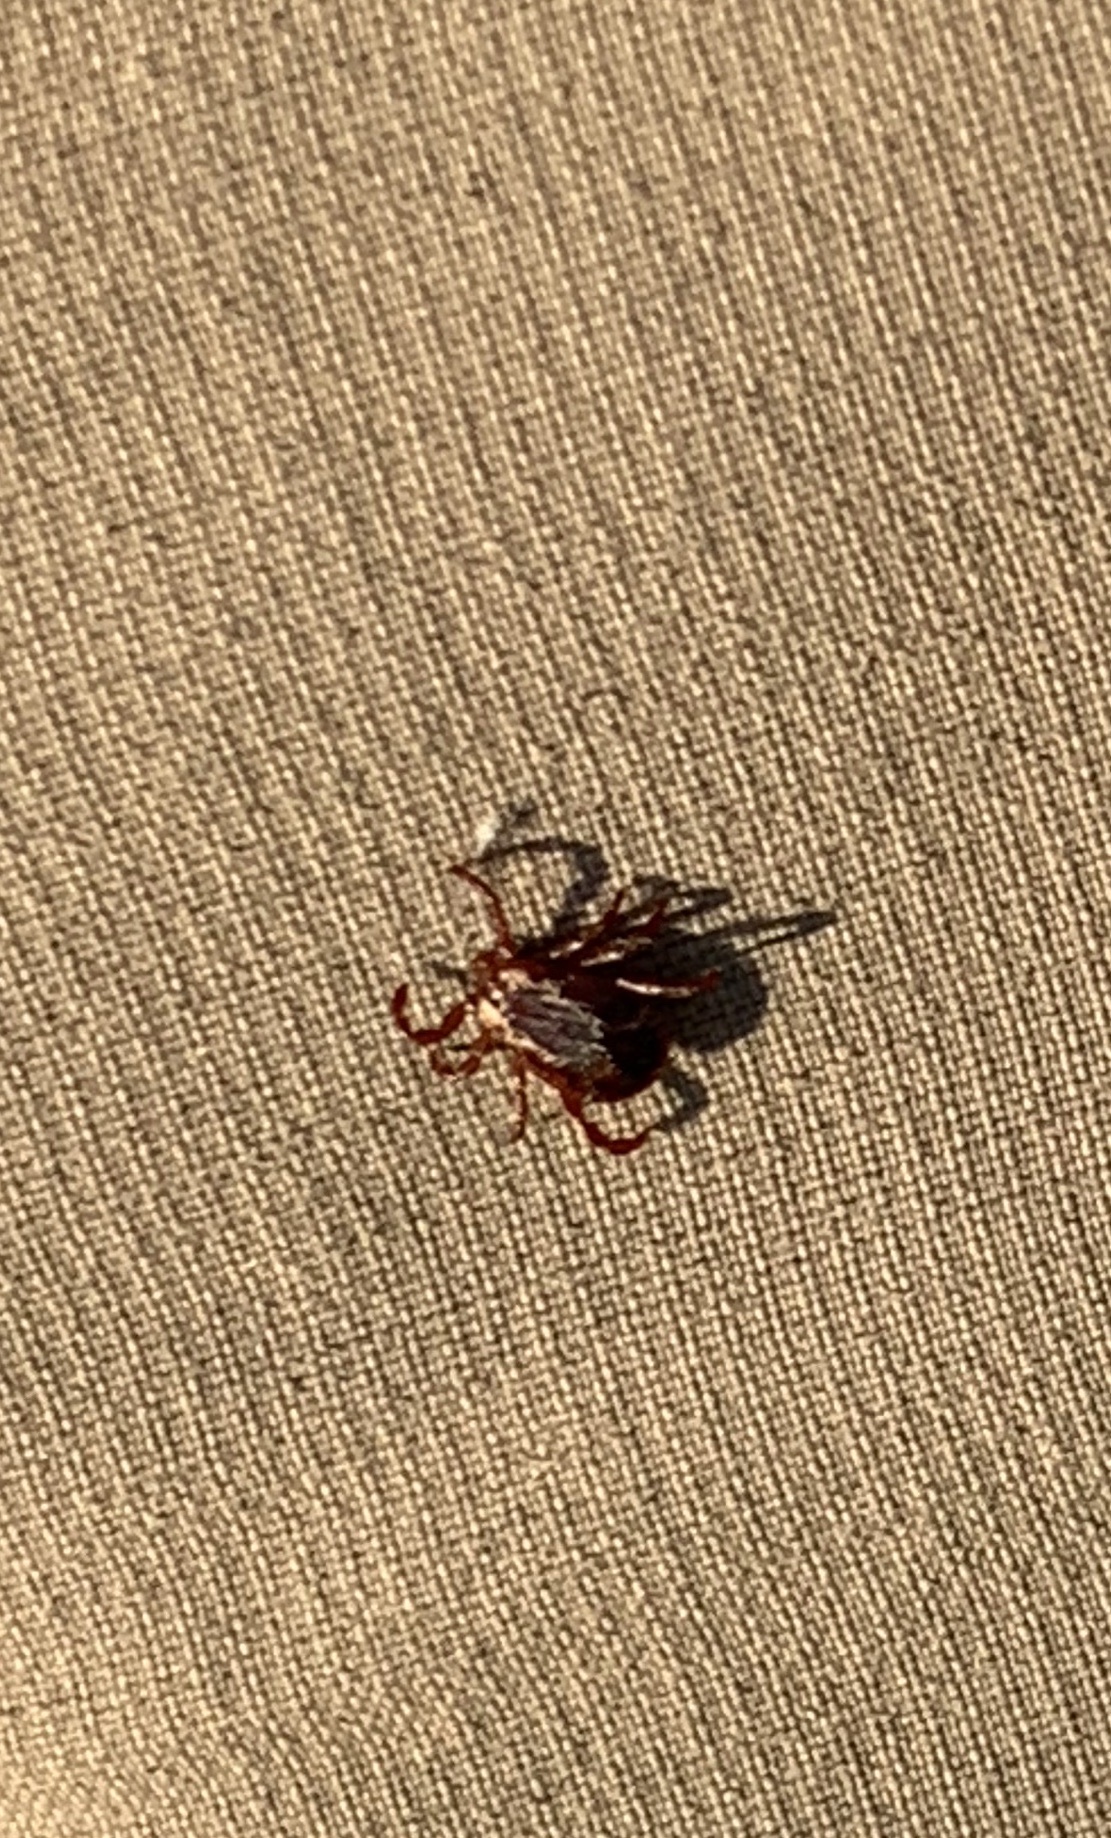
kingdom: Animalia
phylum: Arthropoda
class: Arachnida
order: Ixodida
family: Ixodidae
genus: Dermacentor
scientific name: Dermacentor variabilis
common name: American dog tick
